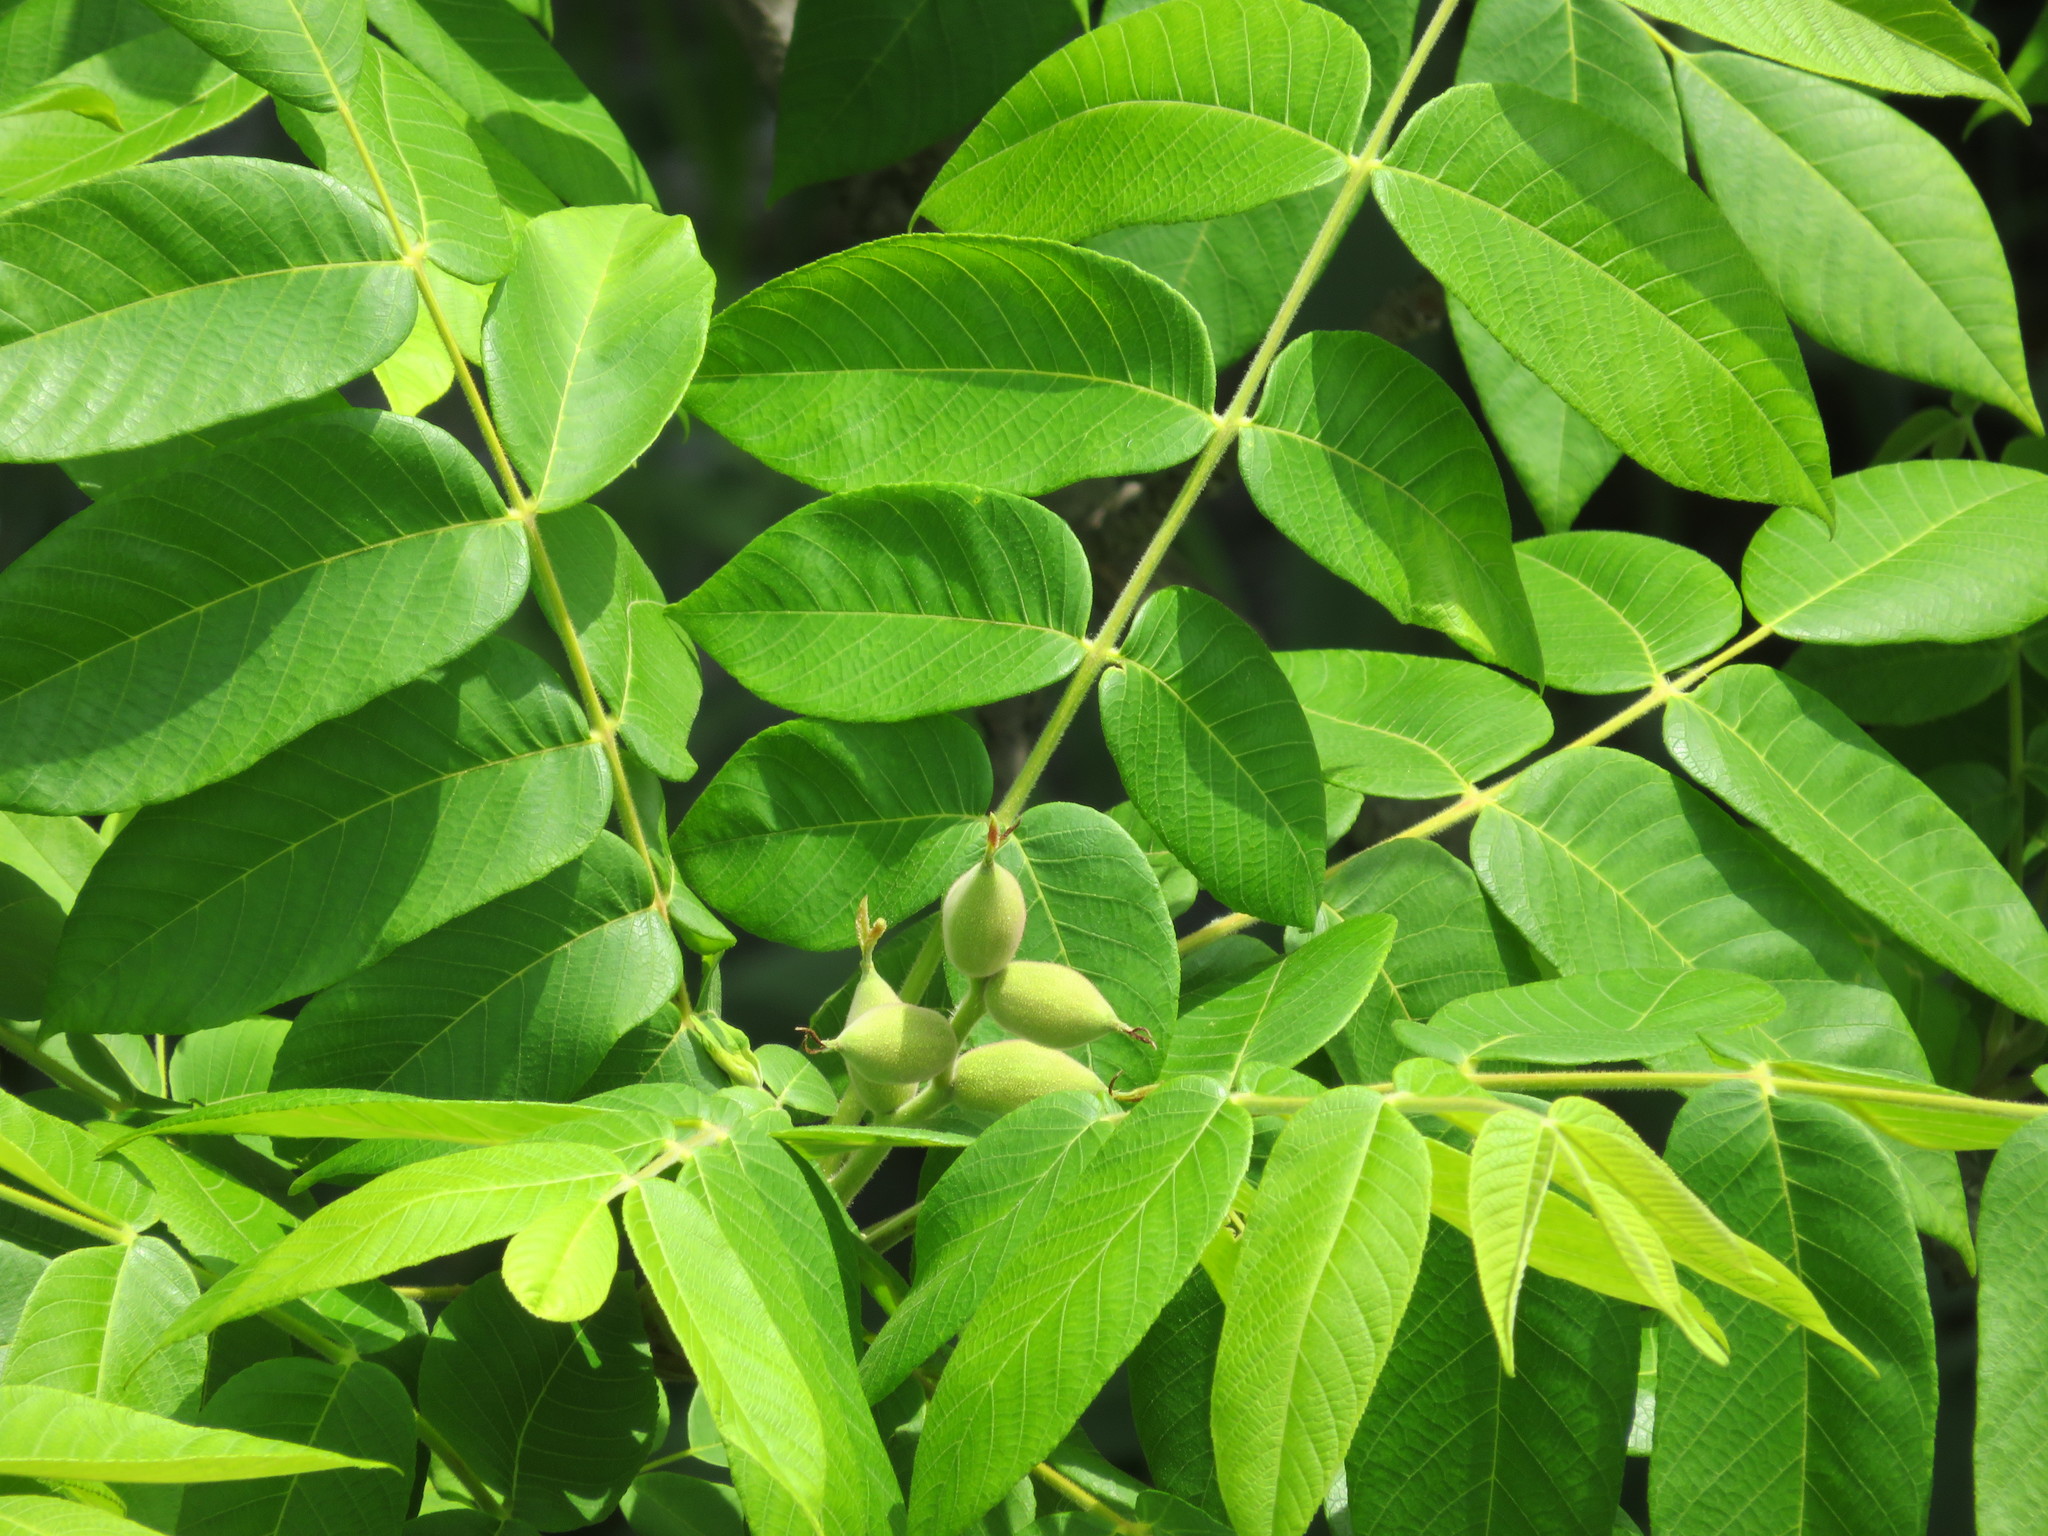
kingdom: Plantae
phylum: Tracheophyta
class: Magnoliopsida
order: Fagales
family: Juglandaceae
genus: Juglans
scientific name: Juglans ailantifolia
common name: Japanese walnut
